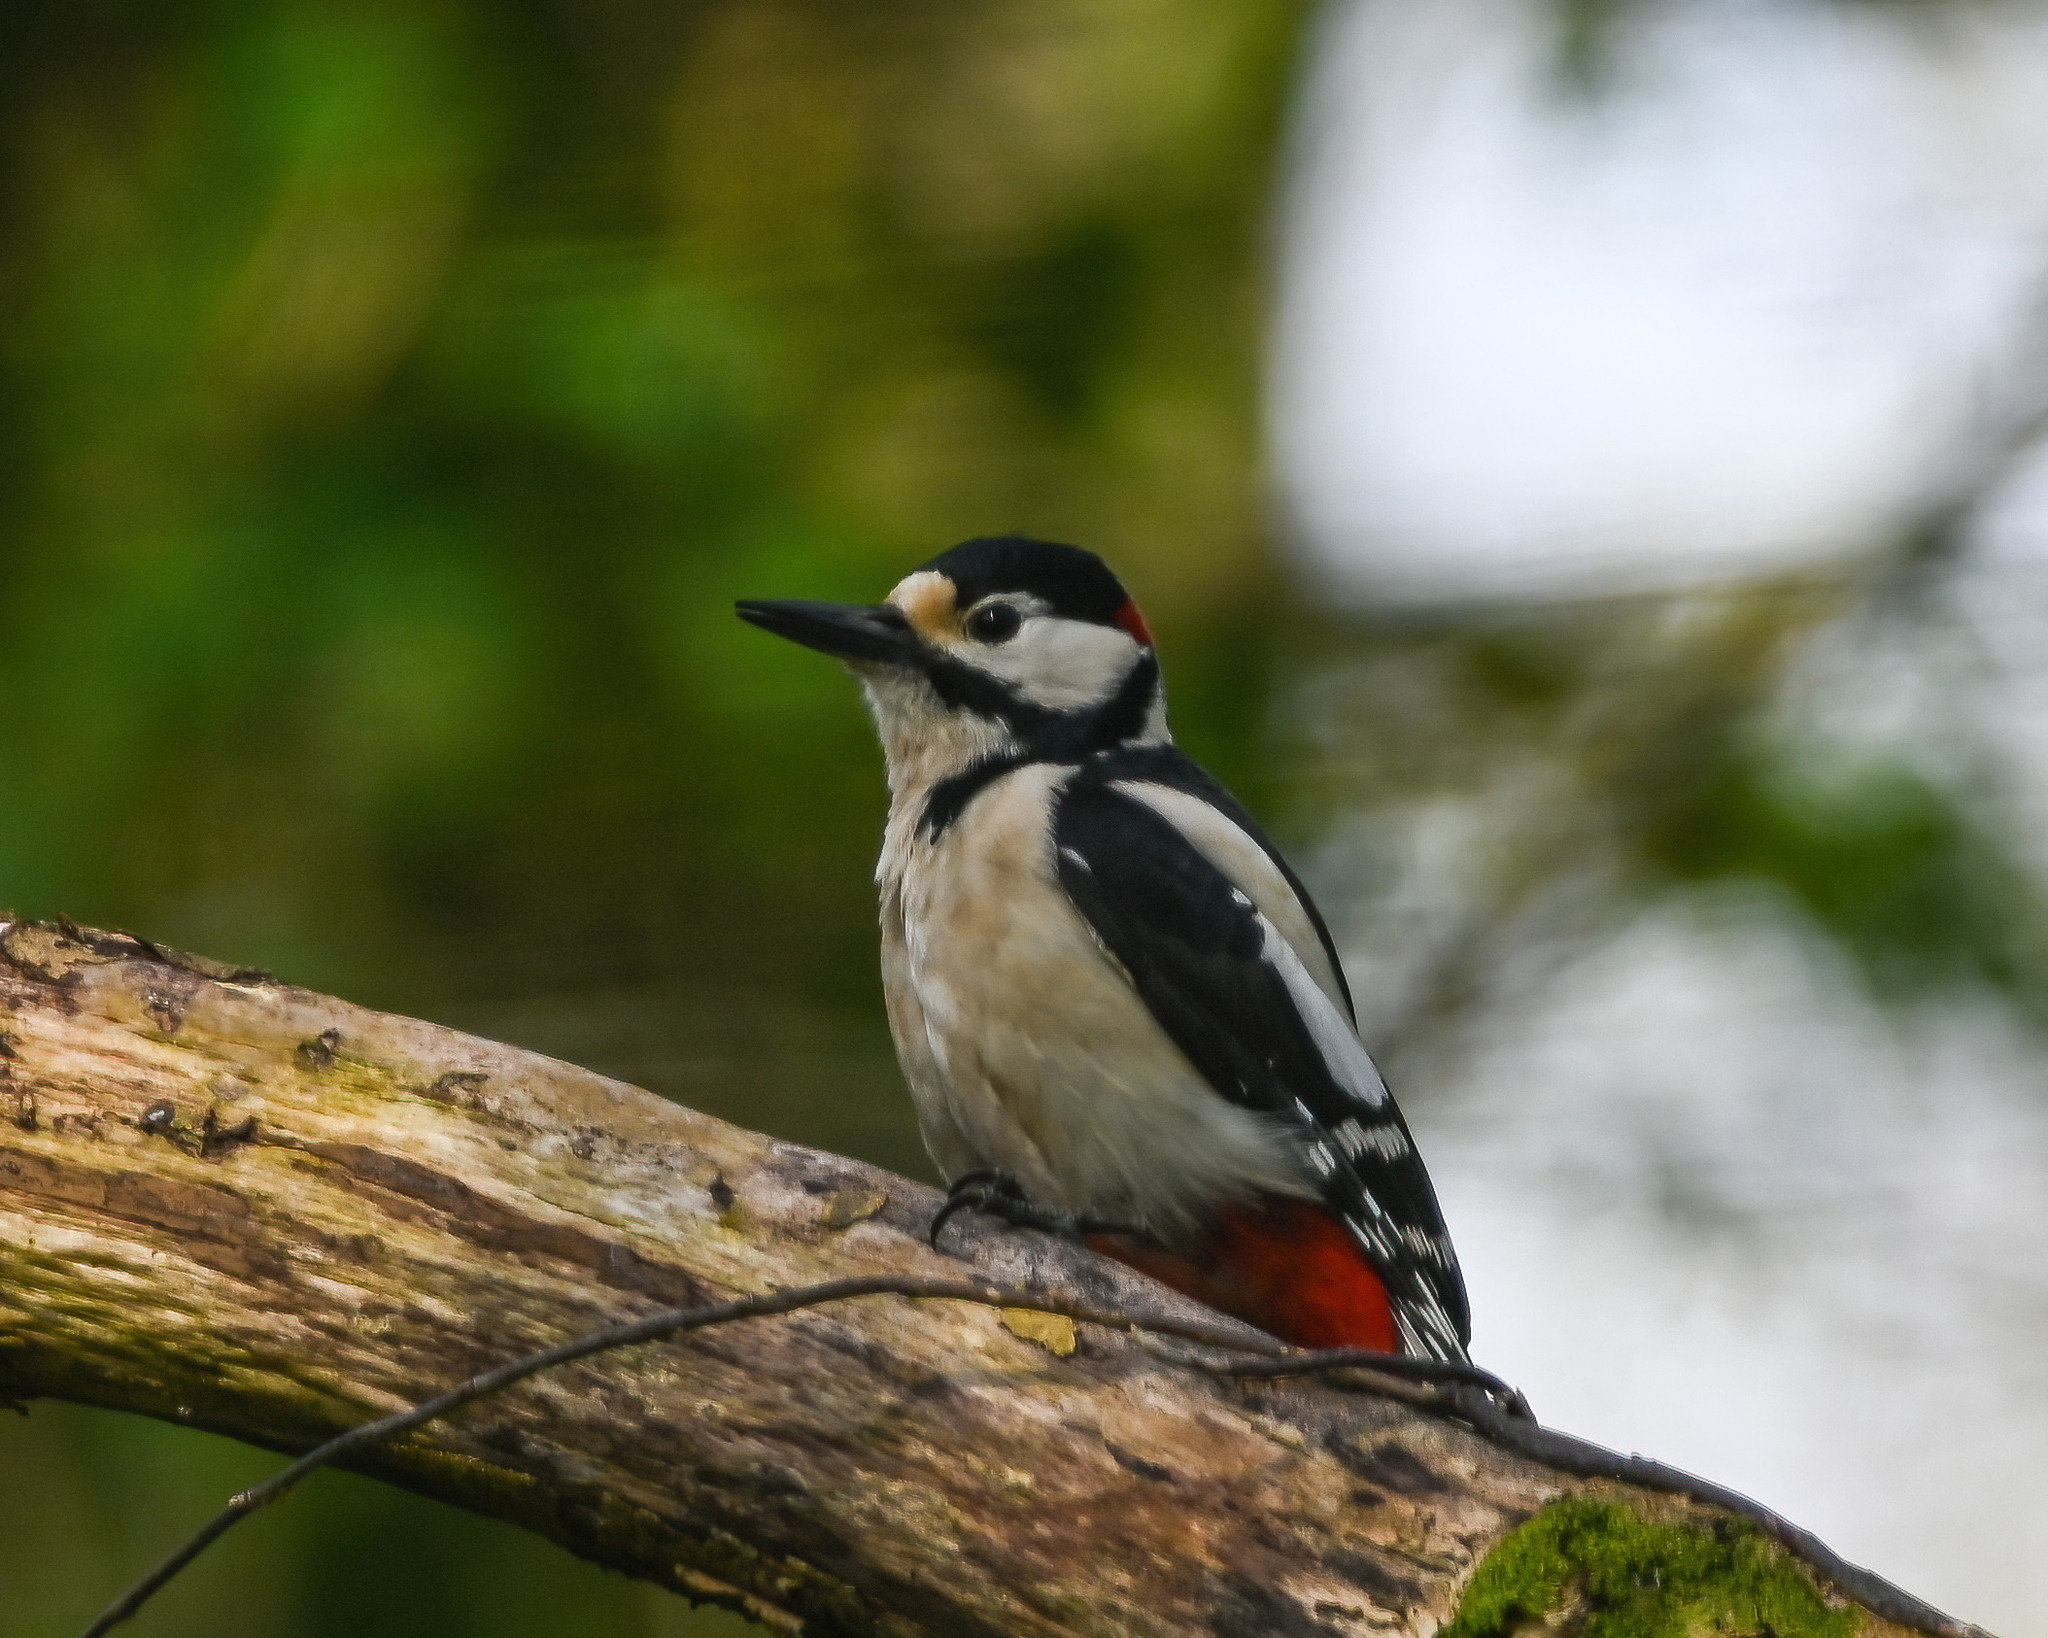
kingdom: Animalia
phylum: Chordata
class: Aves
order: Piciformes
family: Picidae
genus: Dendrocopos
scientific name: Dendrocopos major
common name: Great spotted woodpecker
